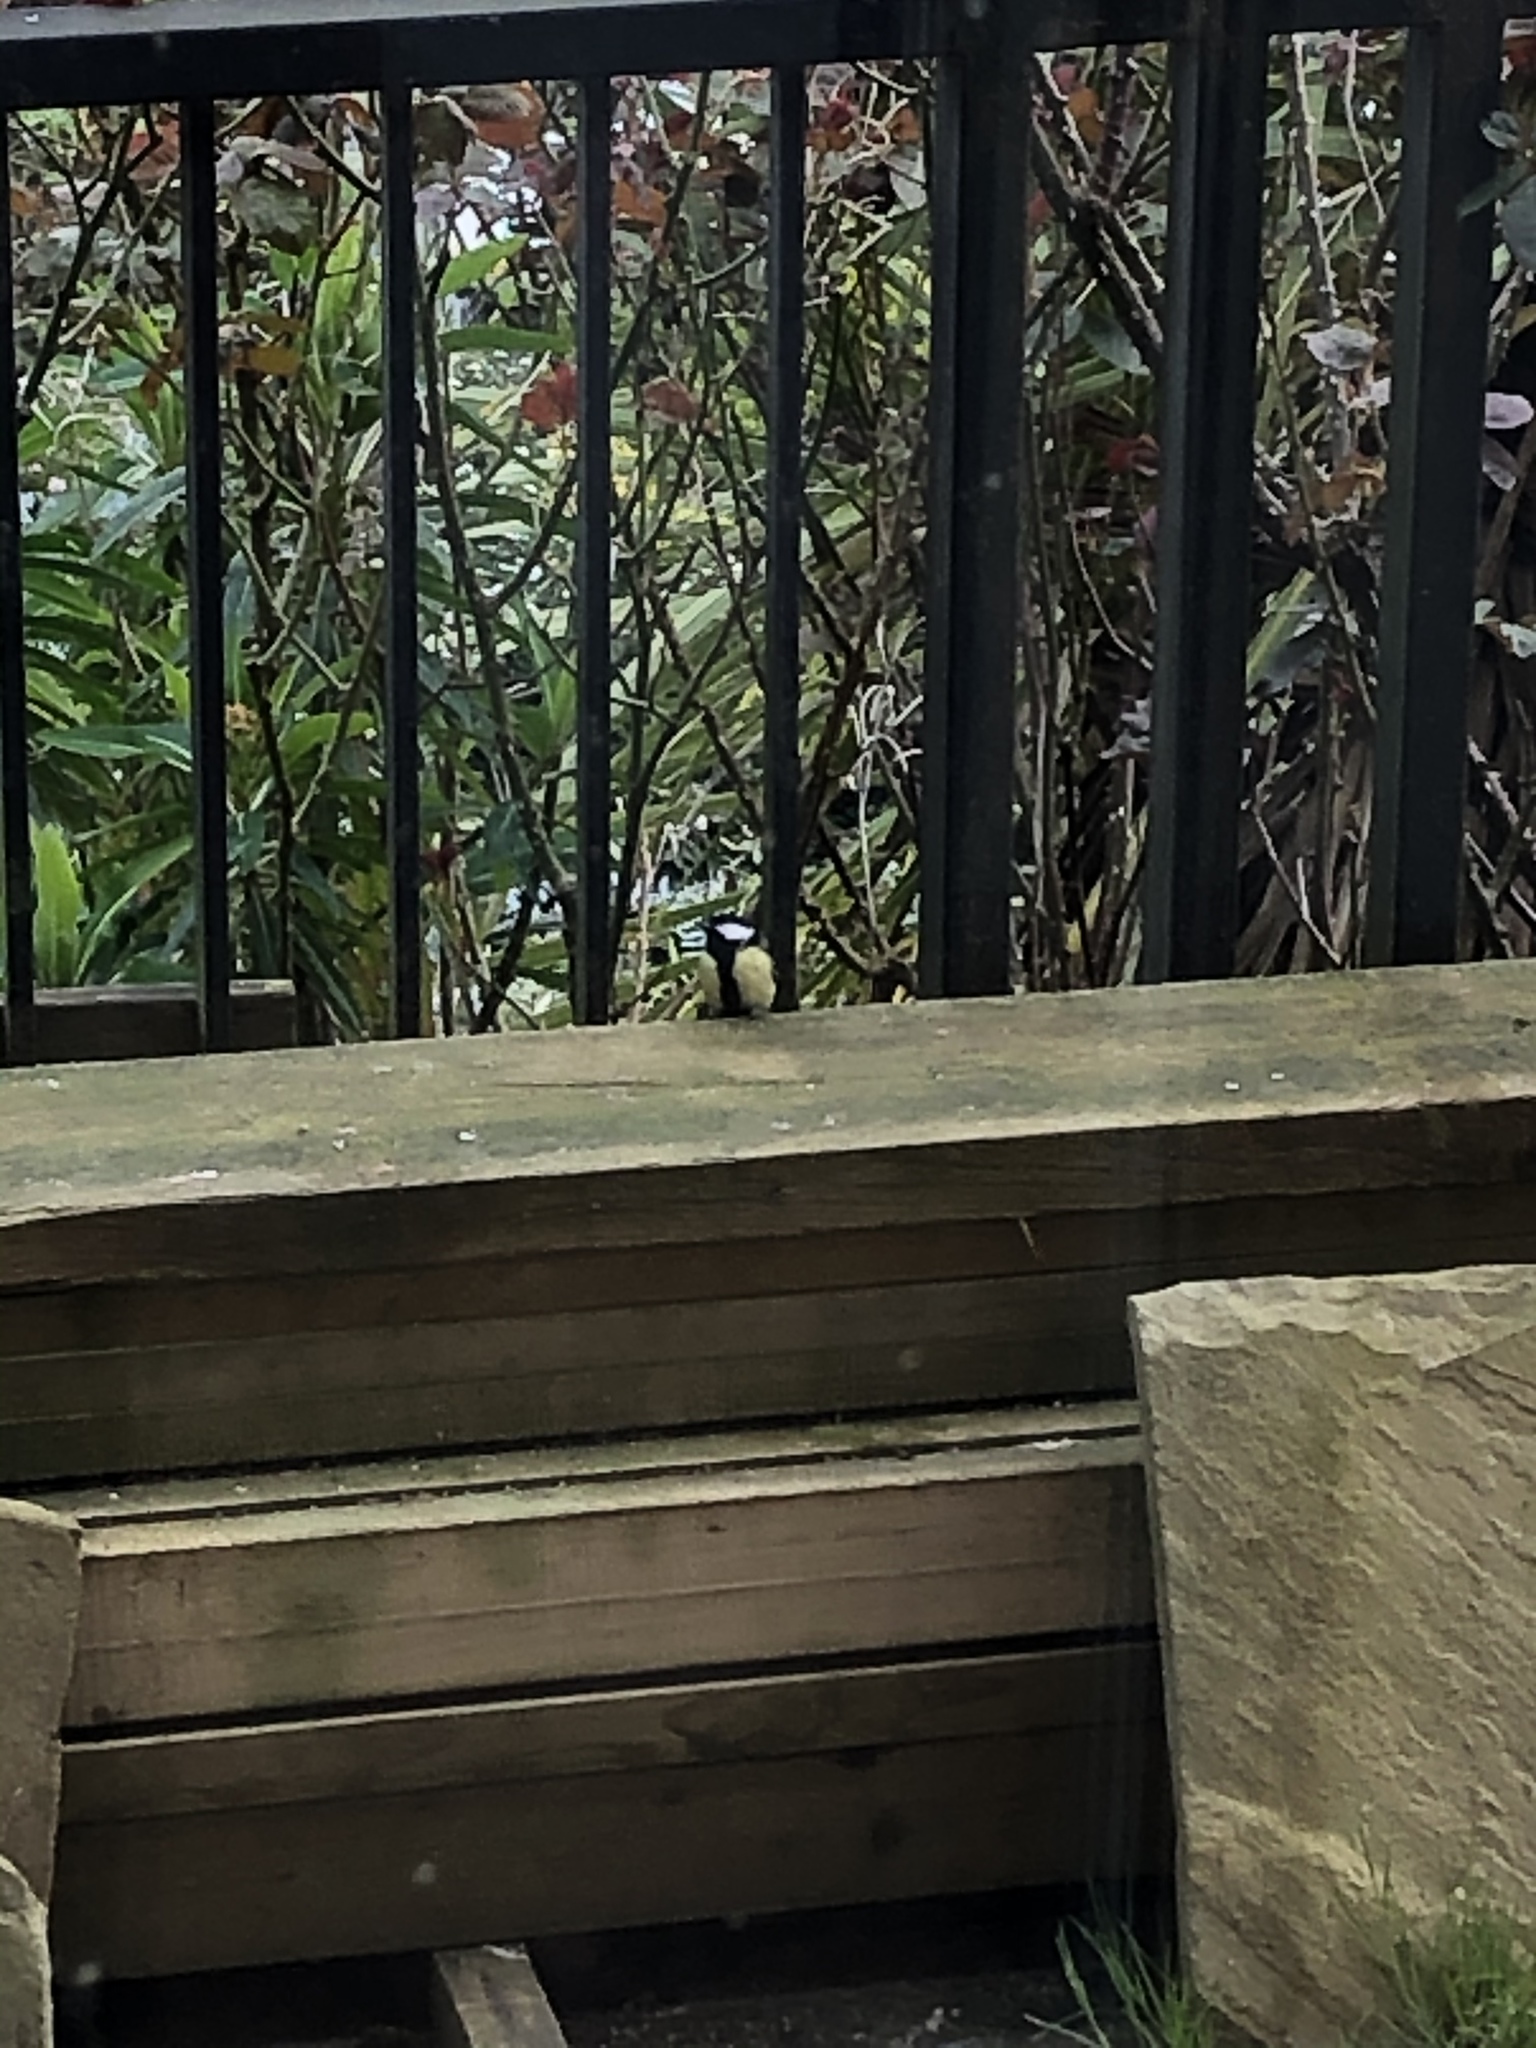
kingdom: Animalia
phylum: Chordata
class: Aves
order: Passeriformes
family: Paridae
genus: Parus
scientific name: Parus major
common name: Great tit
